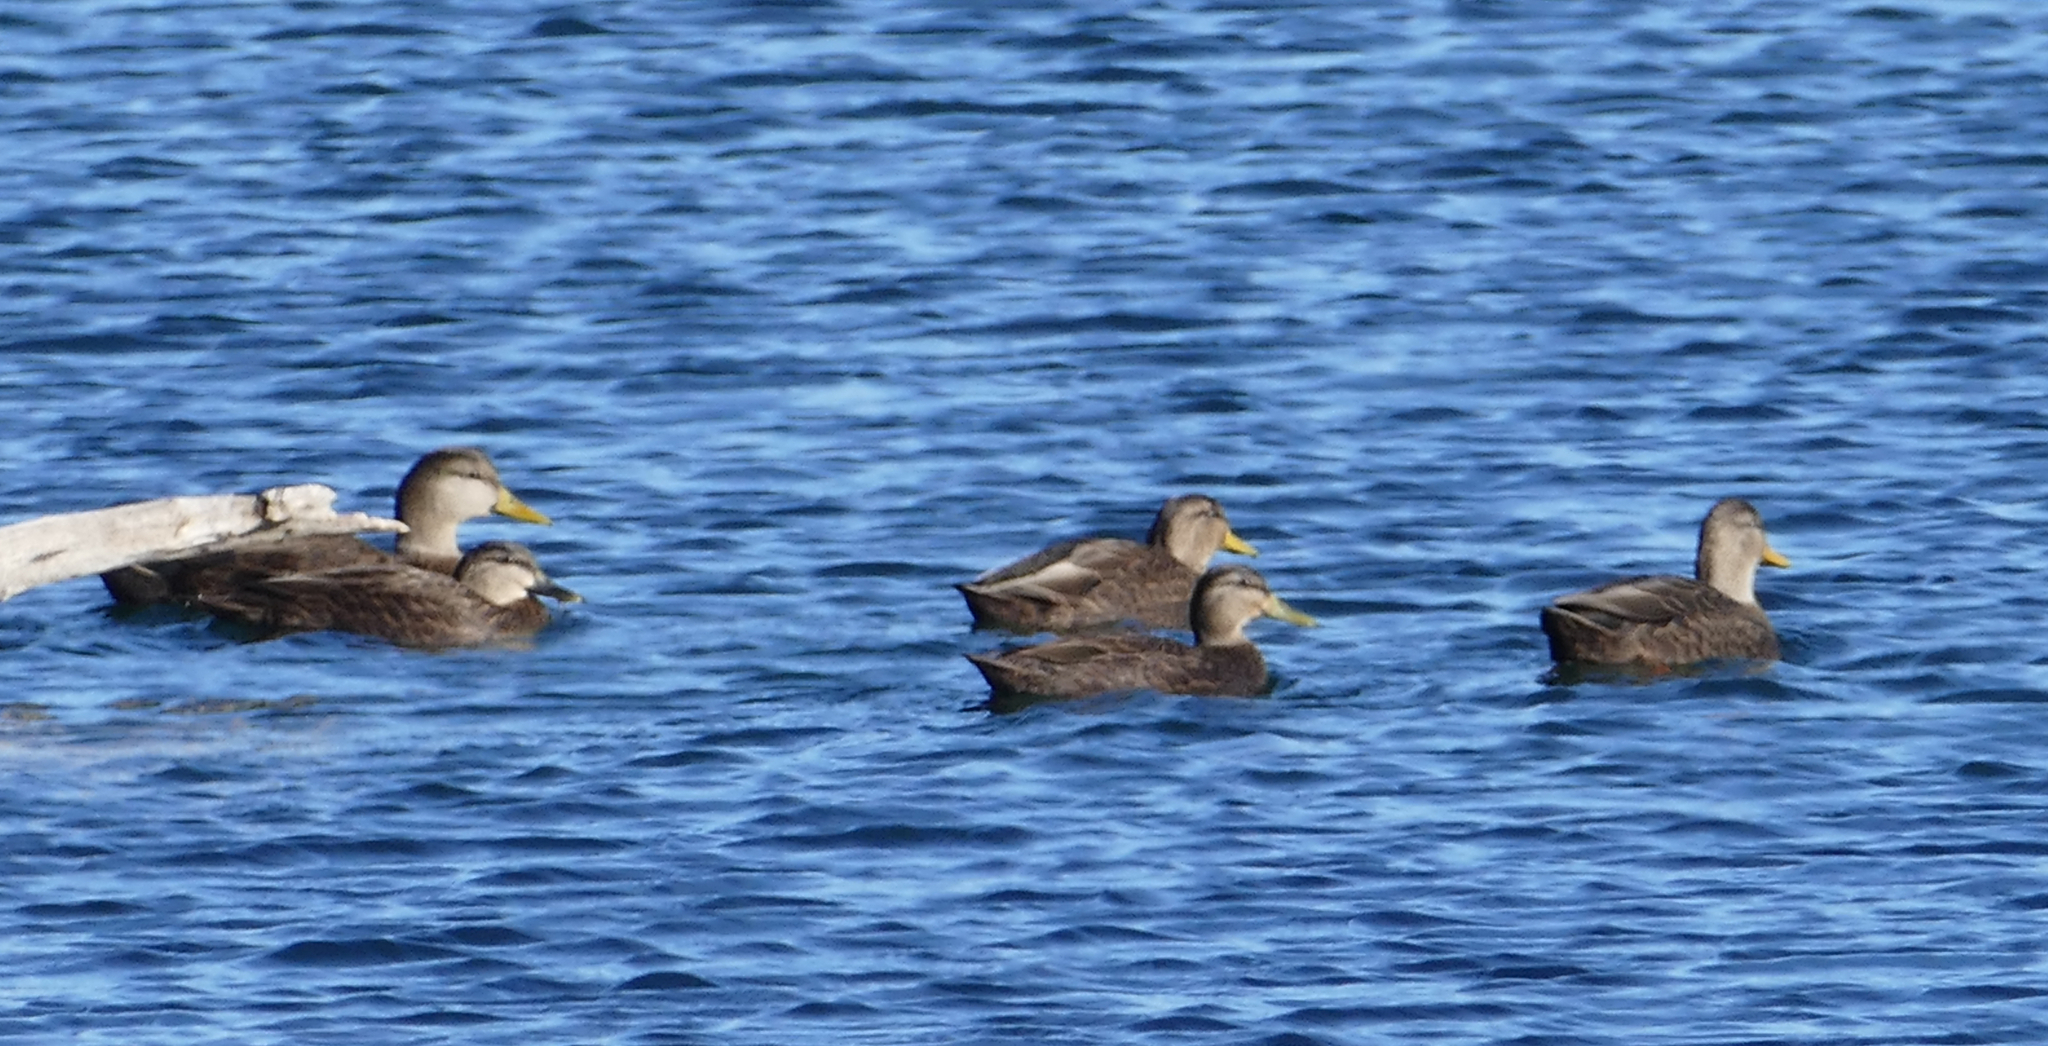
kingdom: Animalia
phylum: Chordata
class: Aves
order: Anseriformes
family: Anatidae
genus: Anas
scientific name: Anas rubripes
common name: American black duck
